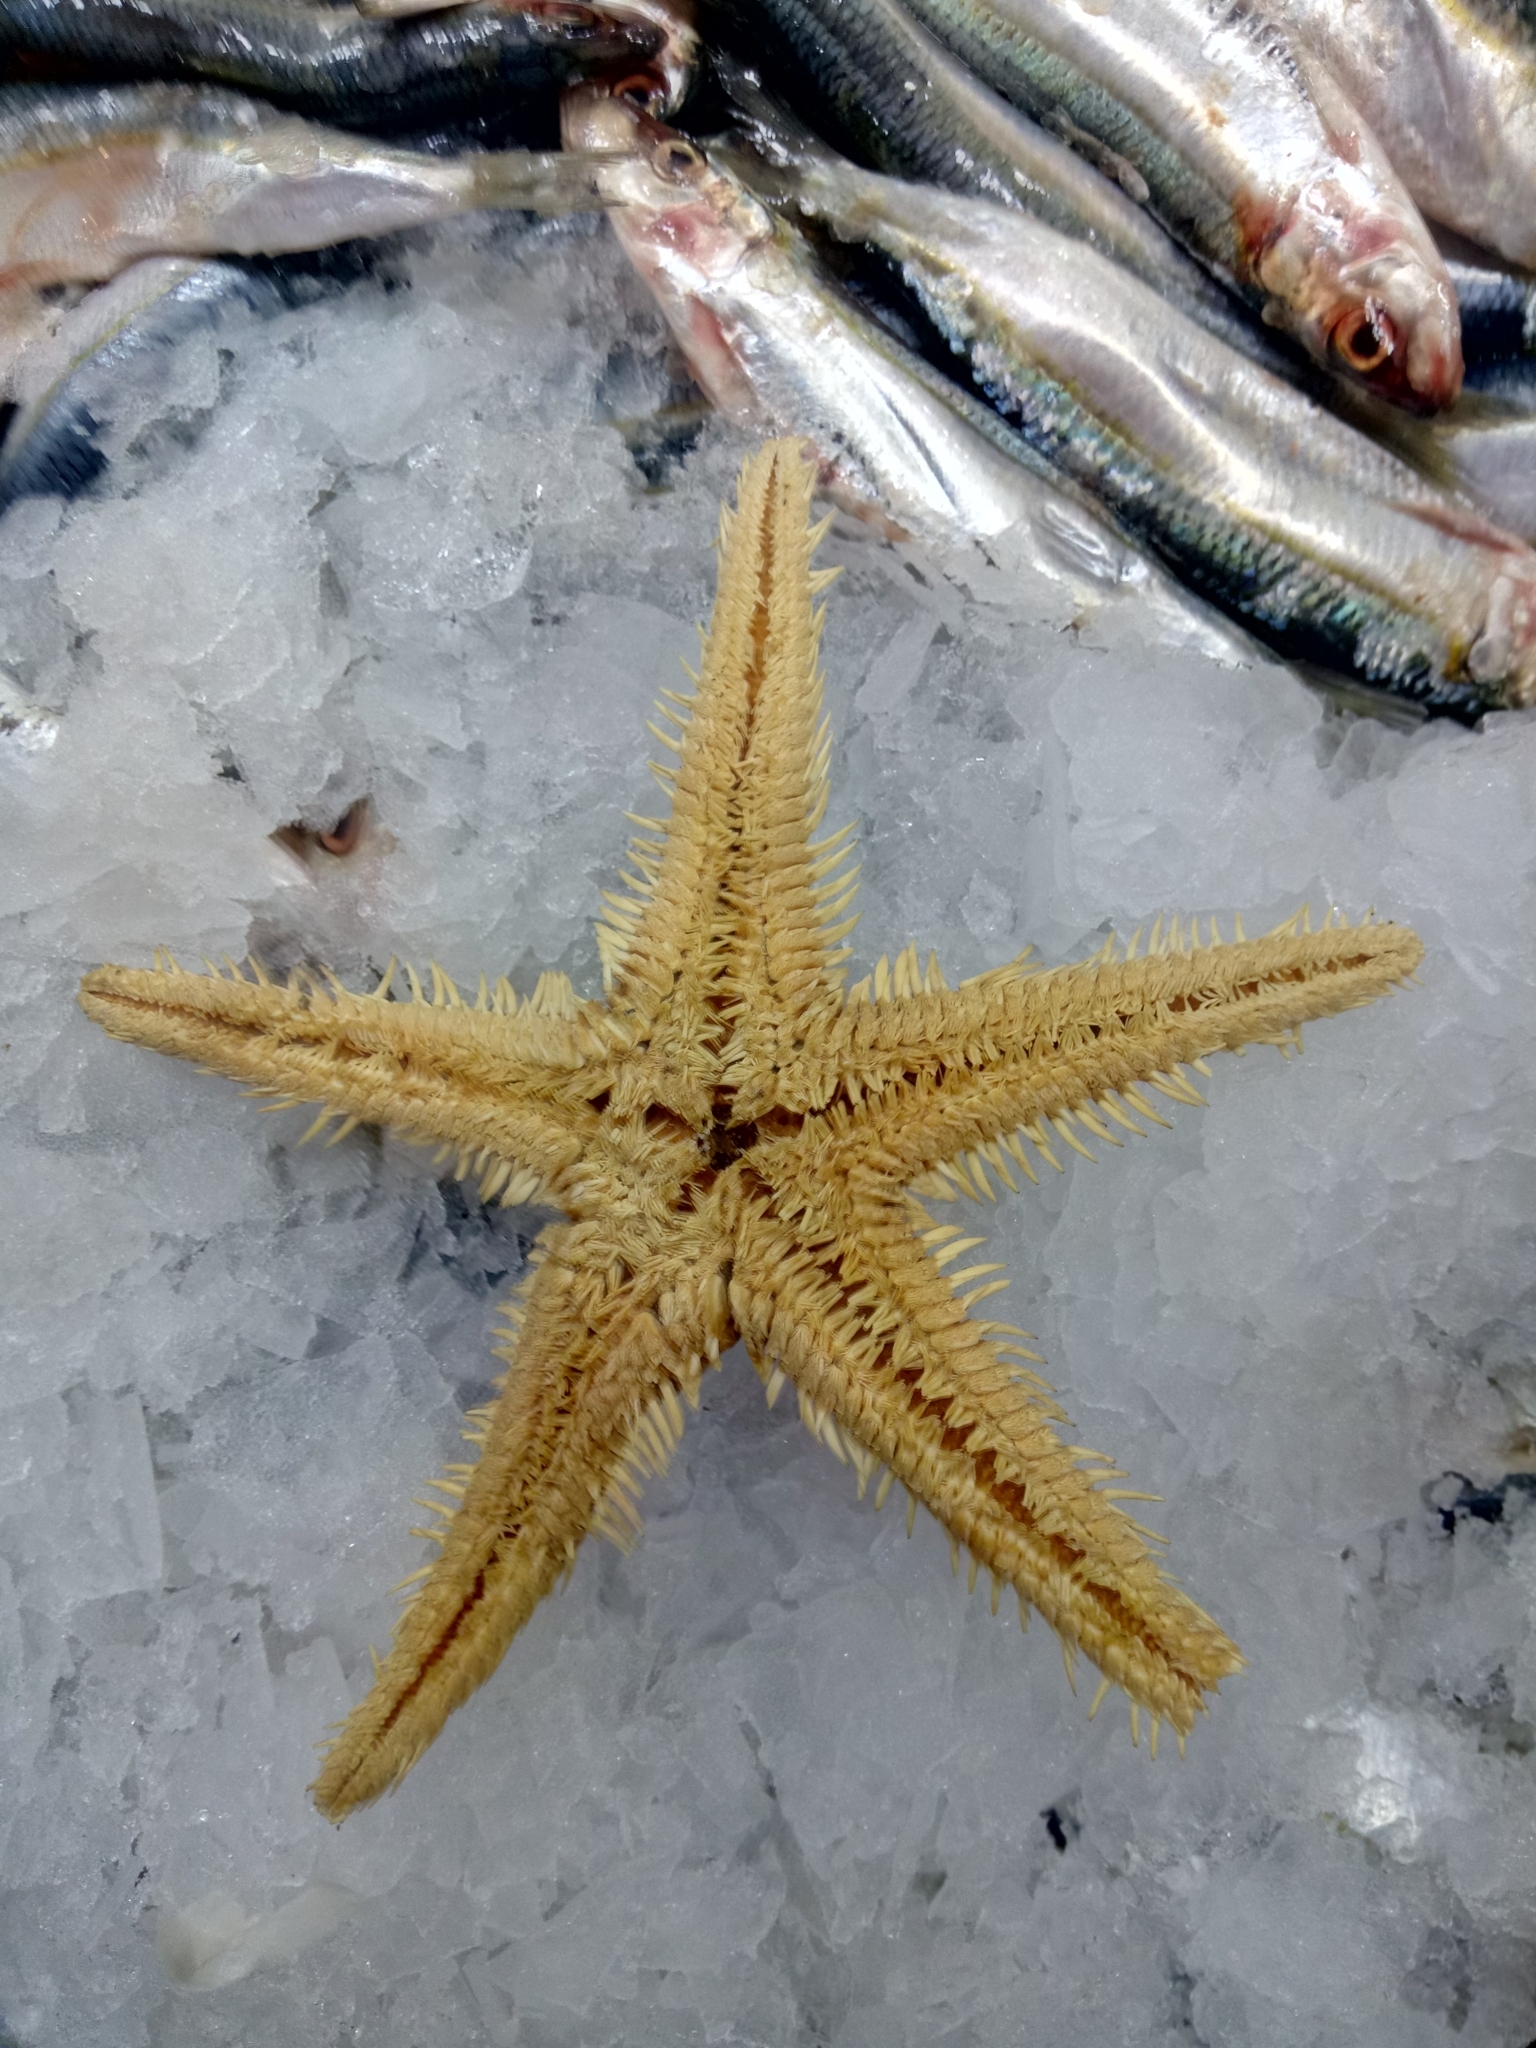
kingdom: Animalia
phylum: Echinodermata
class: Asteroidea
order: Paxillosida
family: Astropectinidae
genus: Astropecten
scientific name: Astropecten aranciacus
